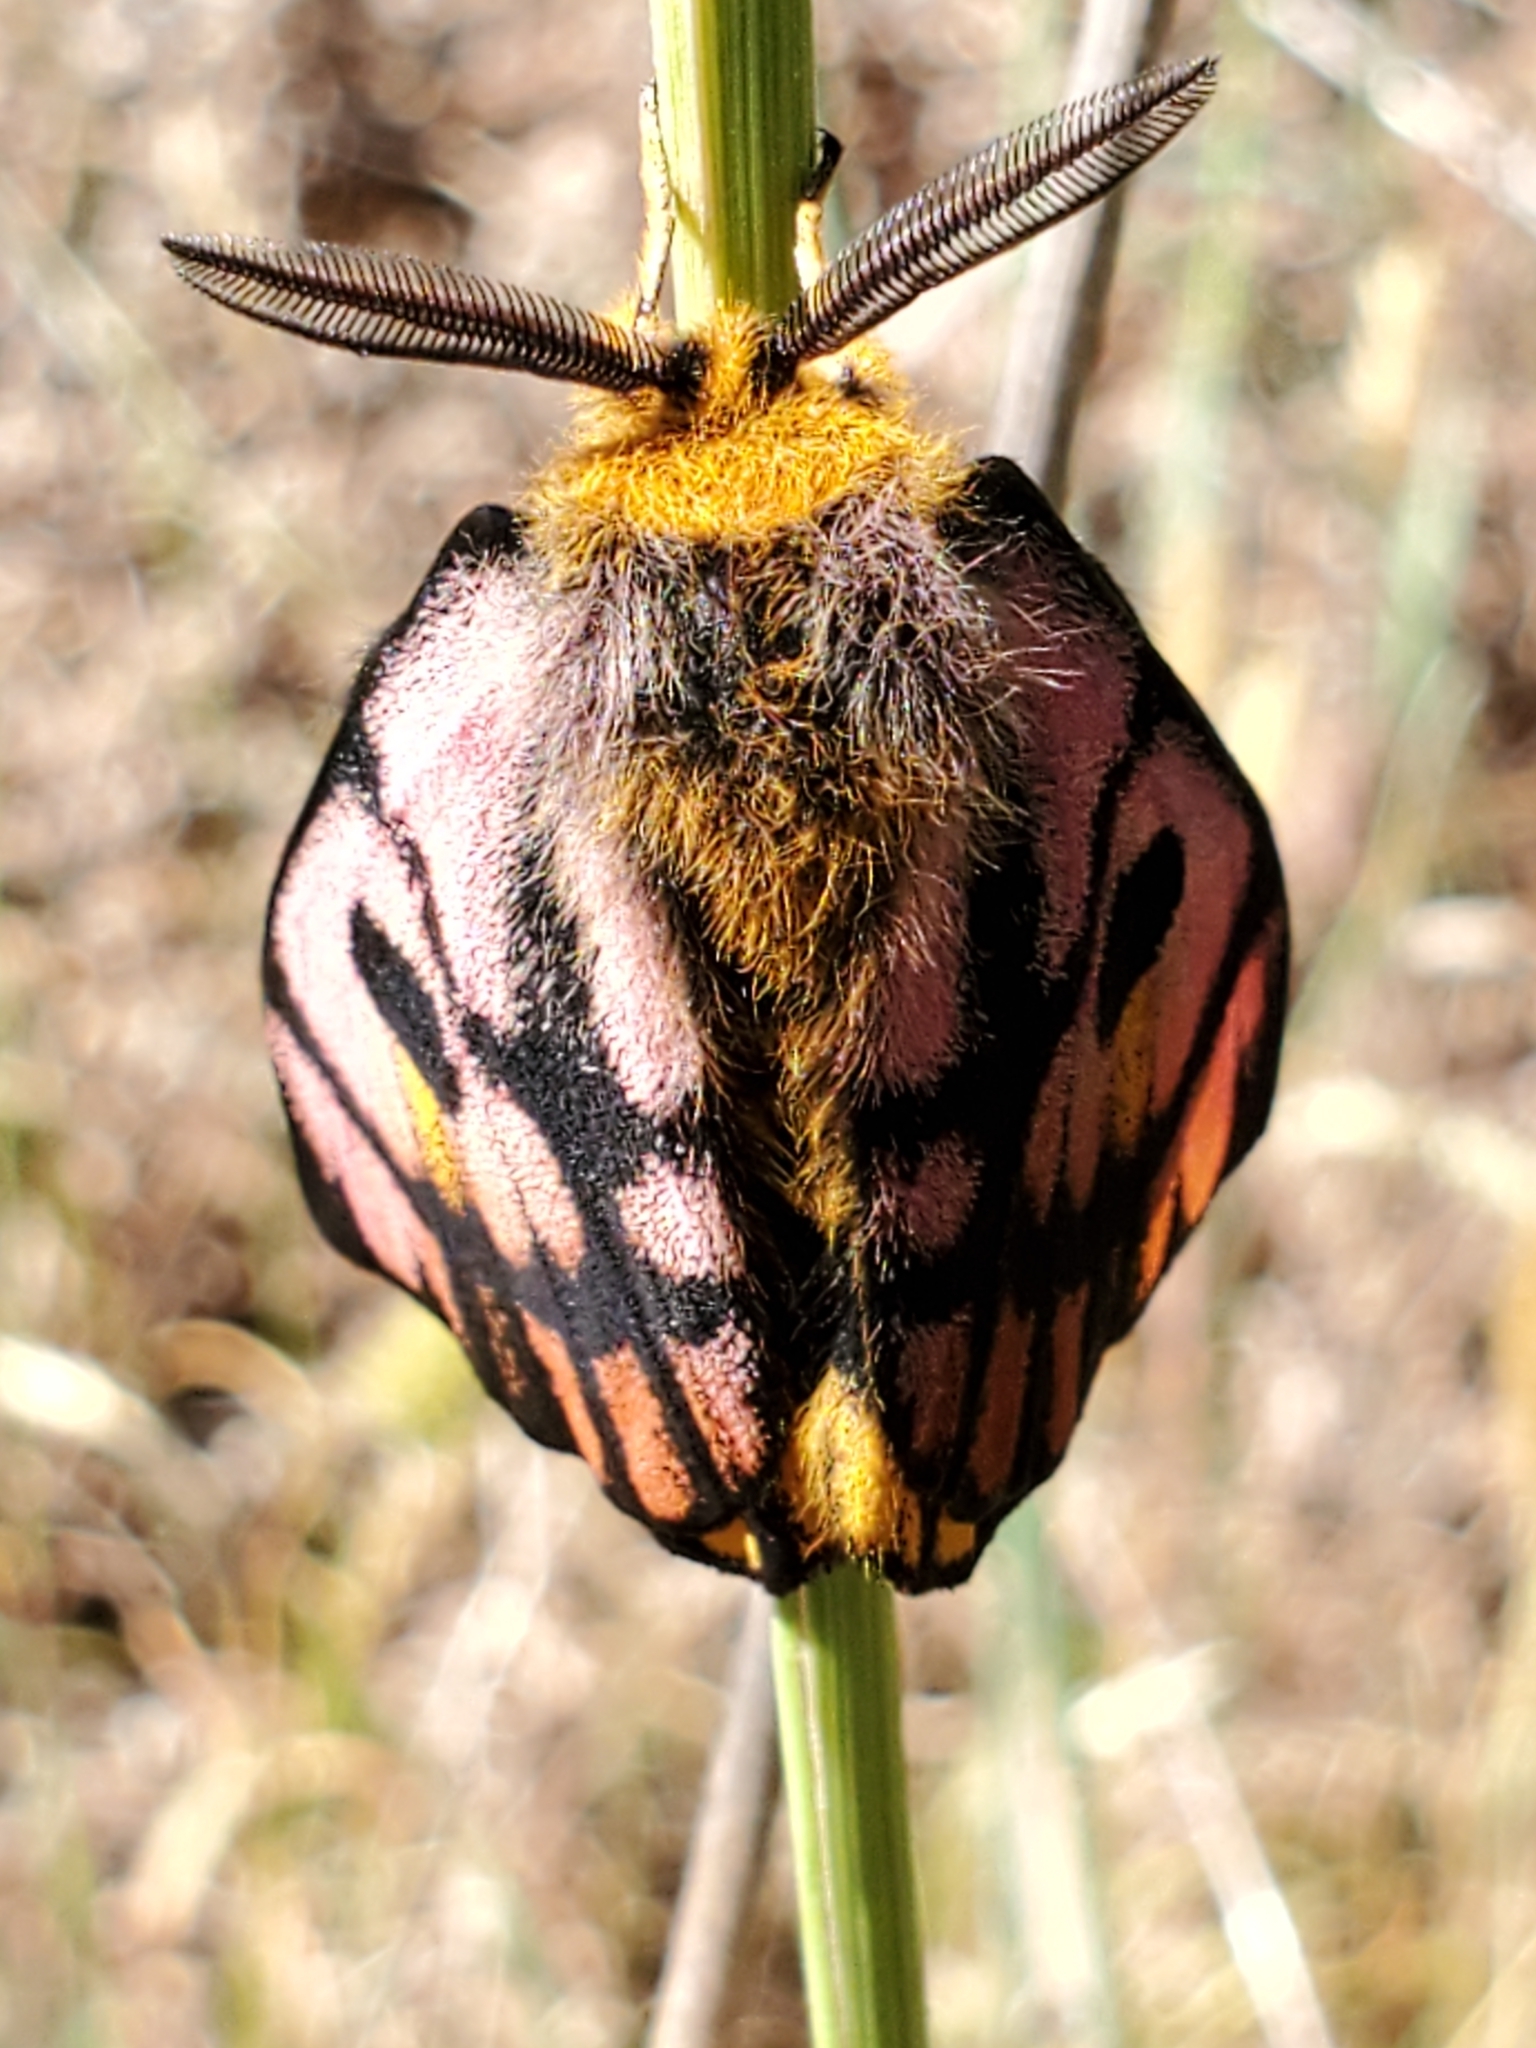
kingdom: Animalia
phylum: Arthropoda
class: Insecta
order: Lepidoptera
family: Saturniidae
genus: Hemileuca
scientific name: Hemileuca eglanterina
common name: Western sheepmoth
